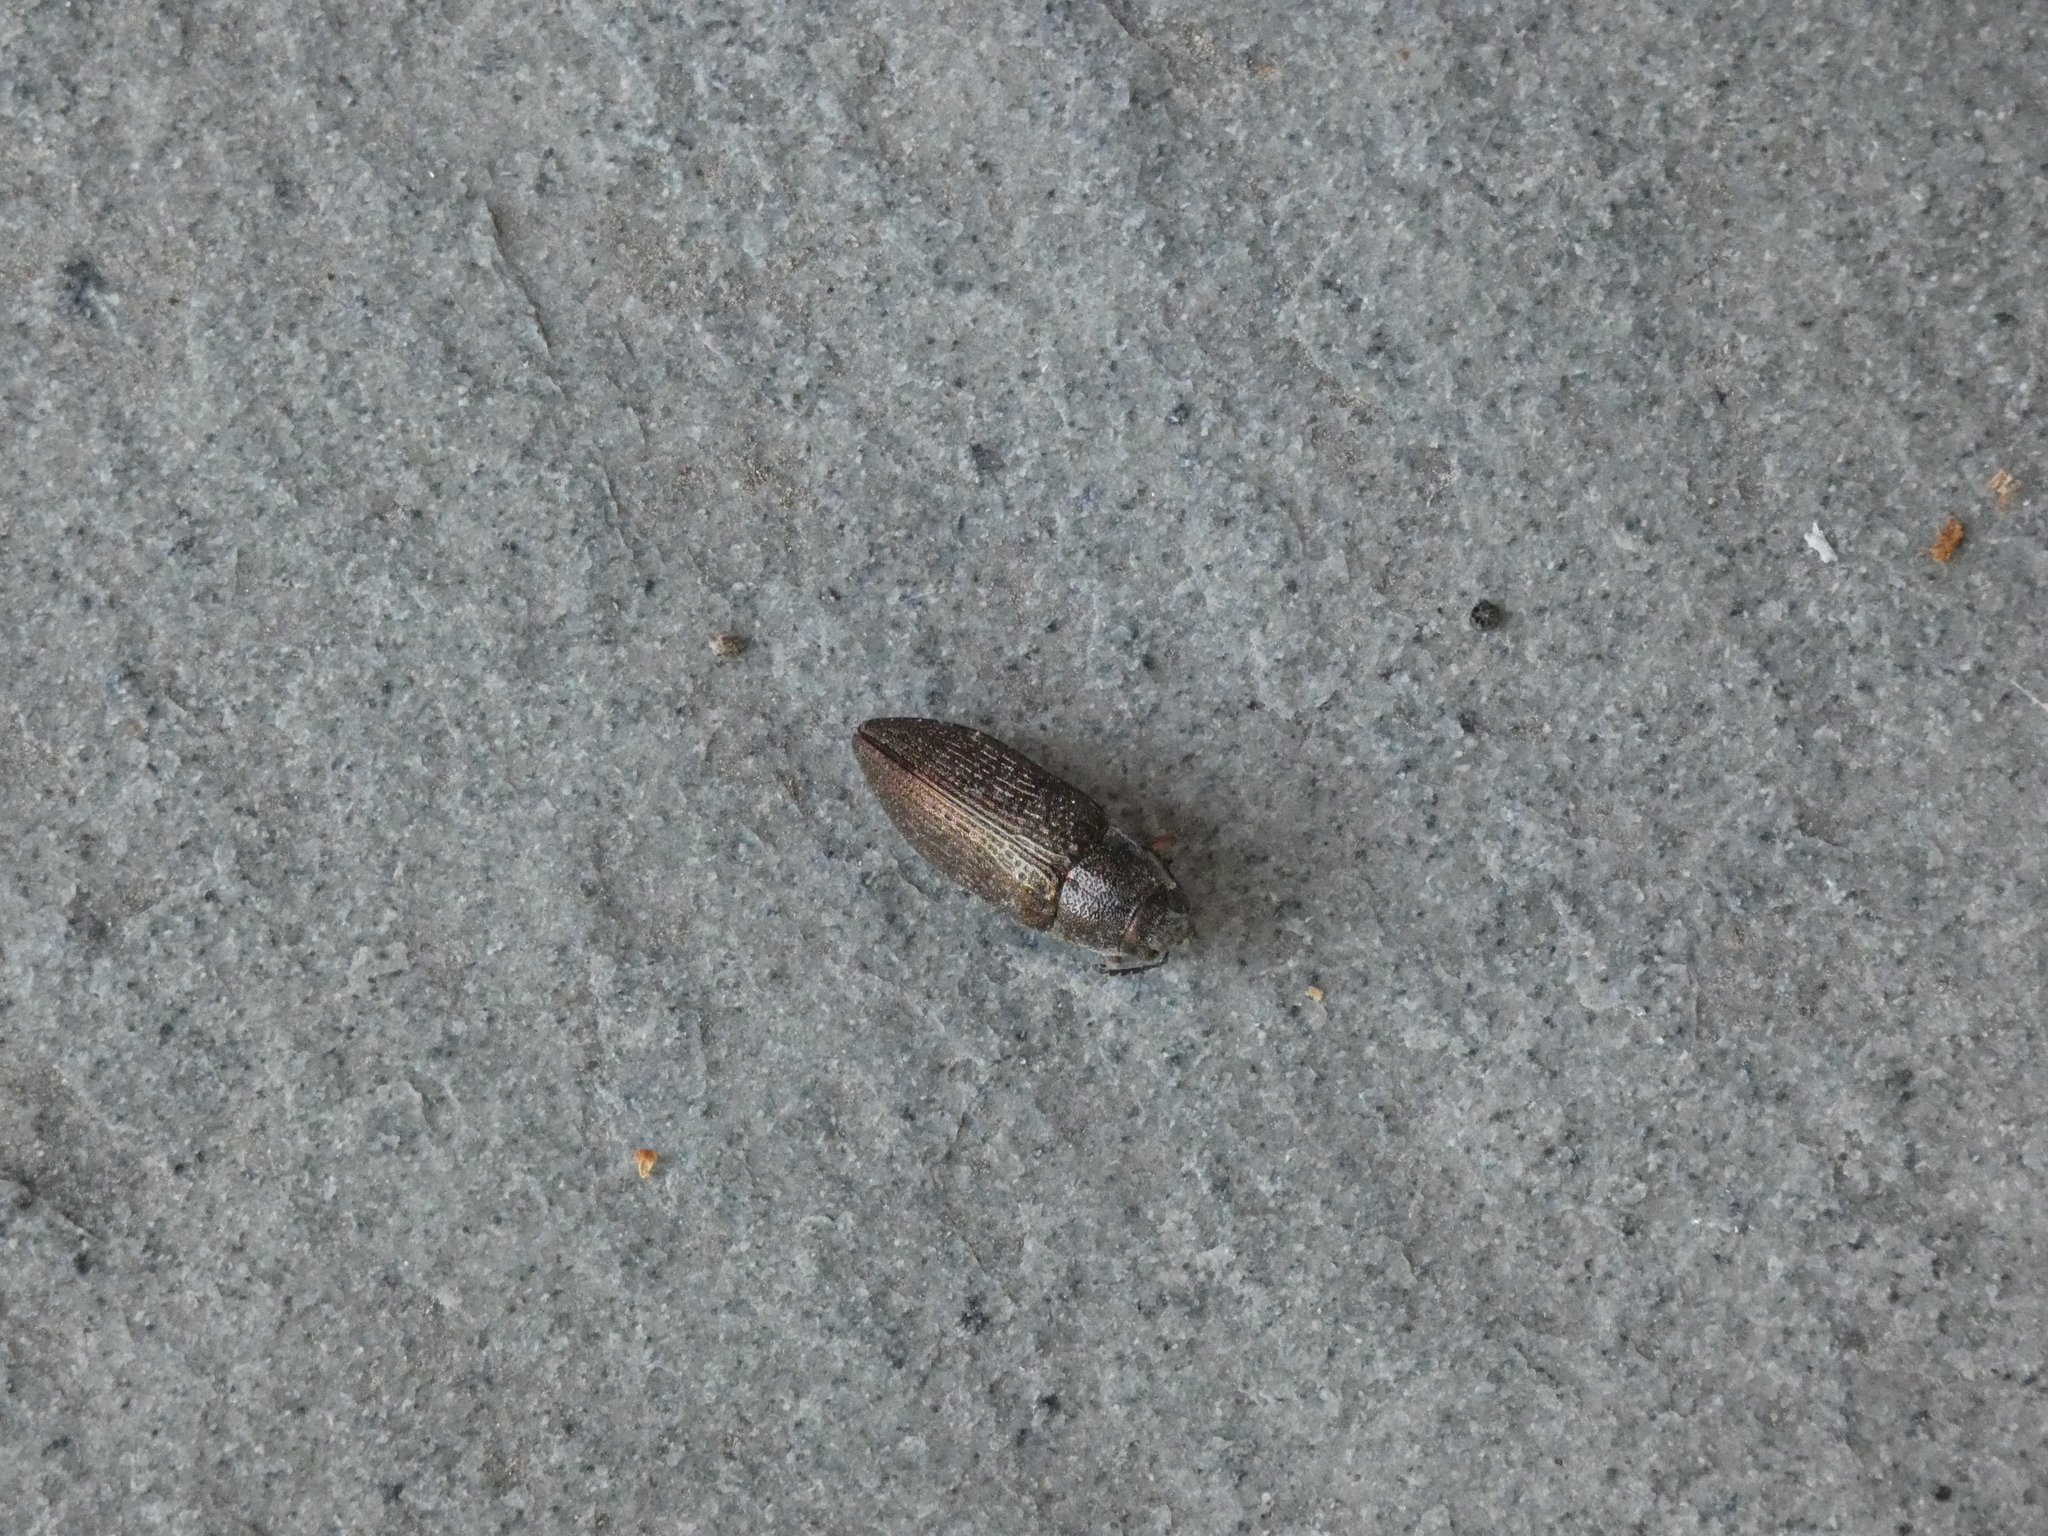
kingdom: Animalia
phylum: Arthropoda
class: Insecta
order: Coleoptera
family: Buprestidae
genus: Buprestis
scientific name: Buprestis apricans
